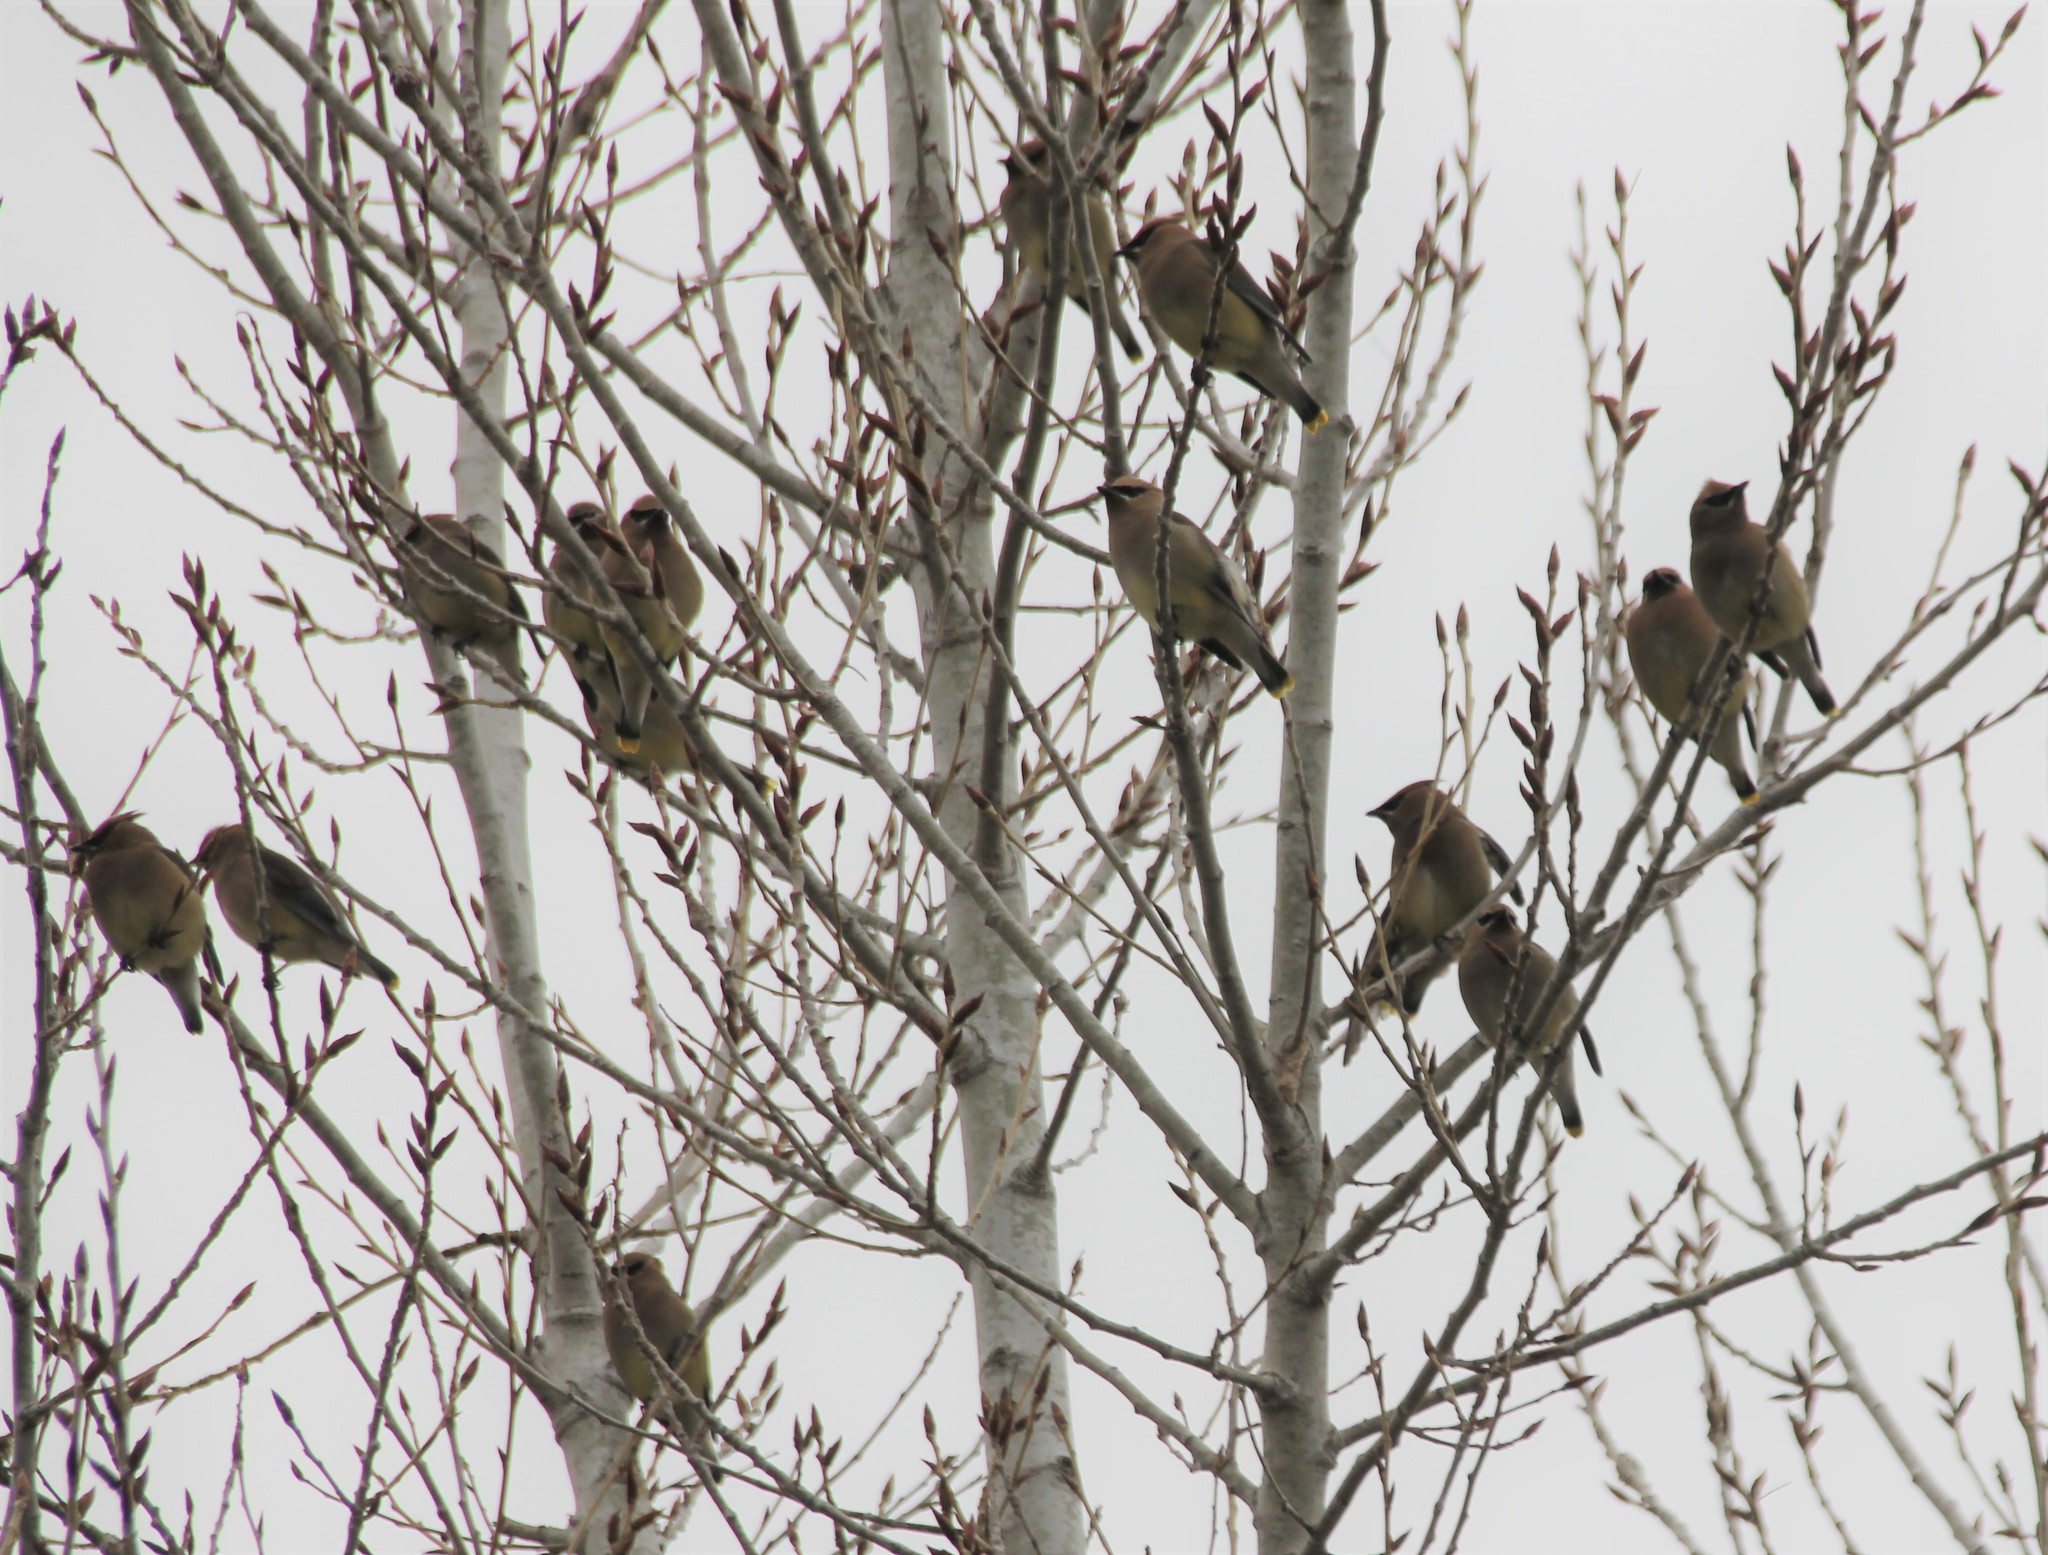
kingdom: Animalia
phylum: Chordata
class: Aves
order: Passeriformes
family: Bombycillidae
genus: Bombycilla
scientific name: Bombycilla cedrorum
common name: Cedar waxwing
